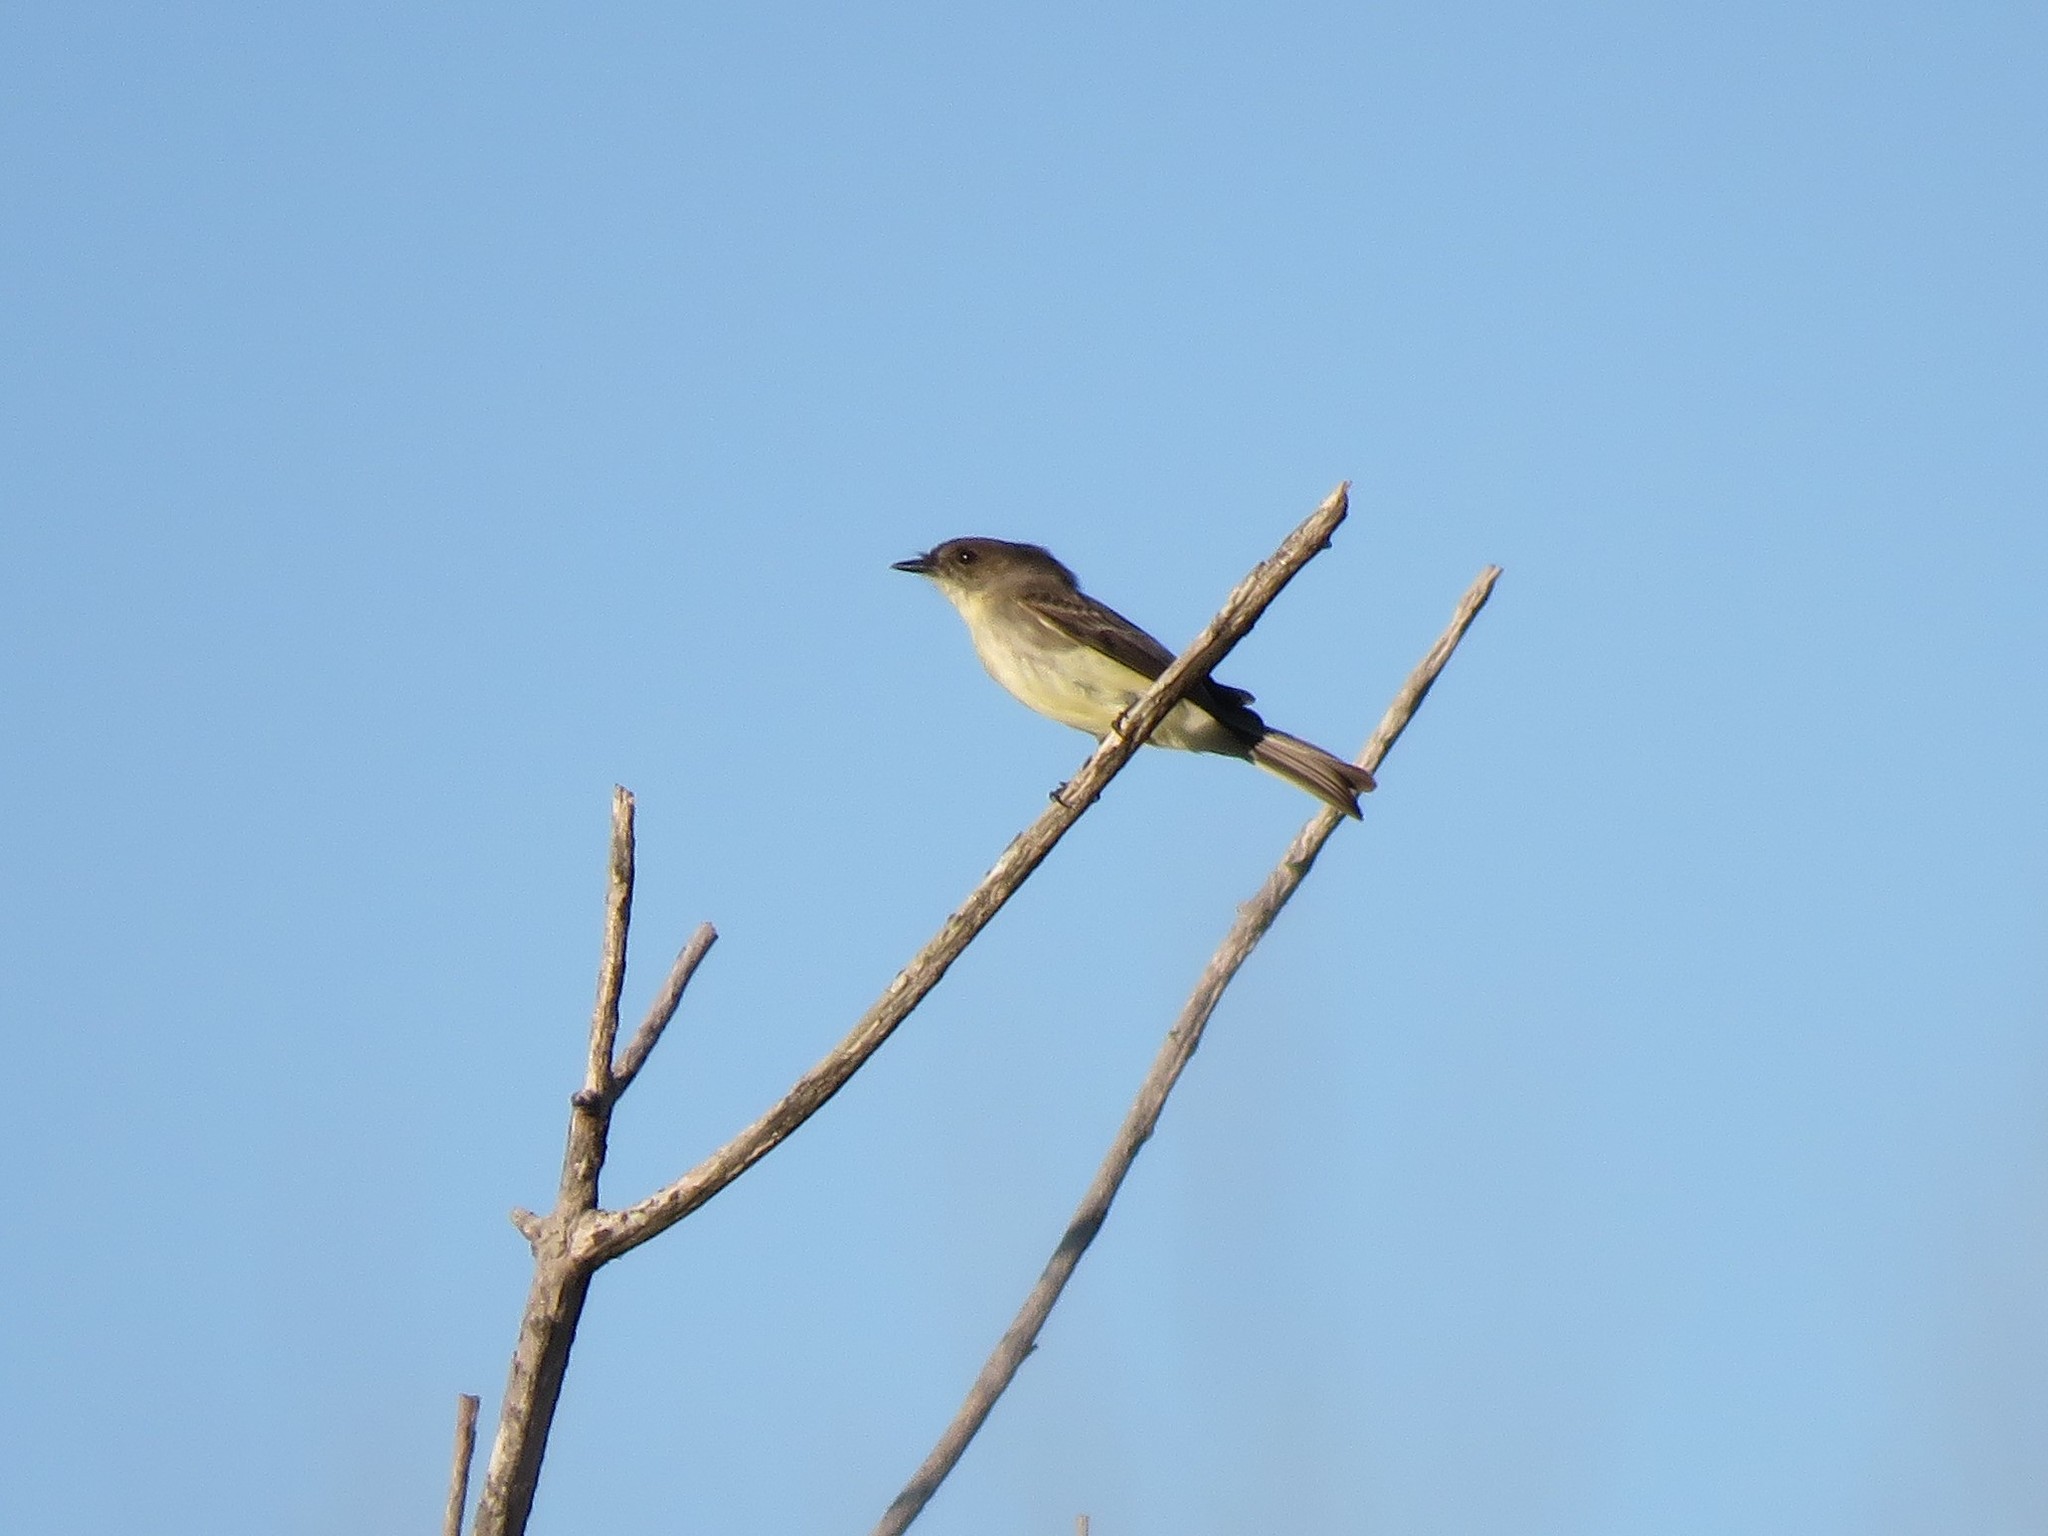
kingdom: Animalia
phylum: Chordata
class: Aves
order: Passeriformes
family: Tyrannidae
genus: Sayornis
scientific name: Sayornis phoebe
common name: Eastern phoebe
